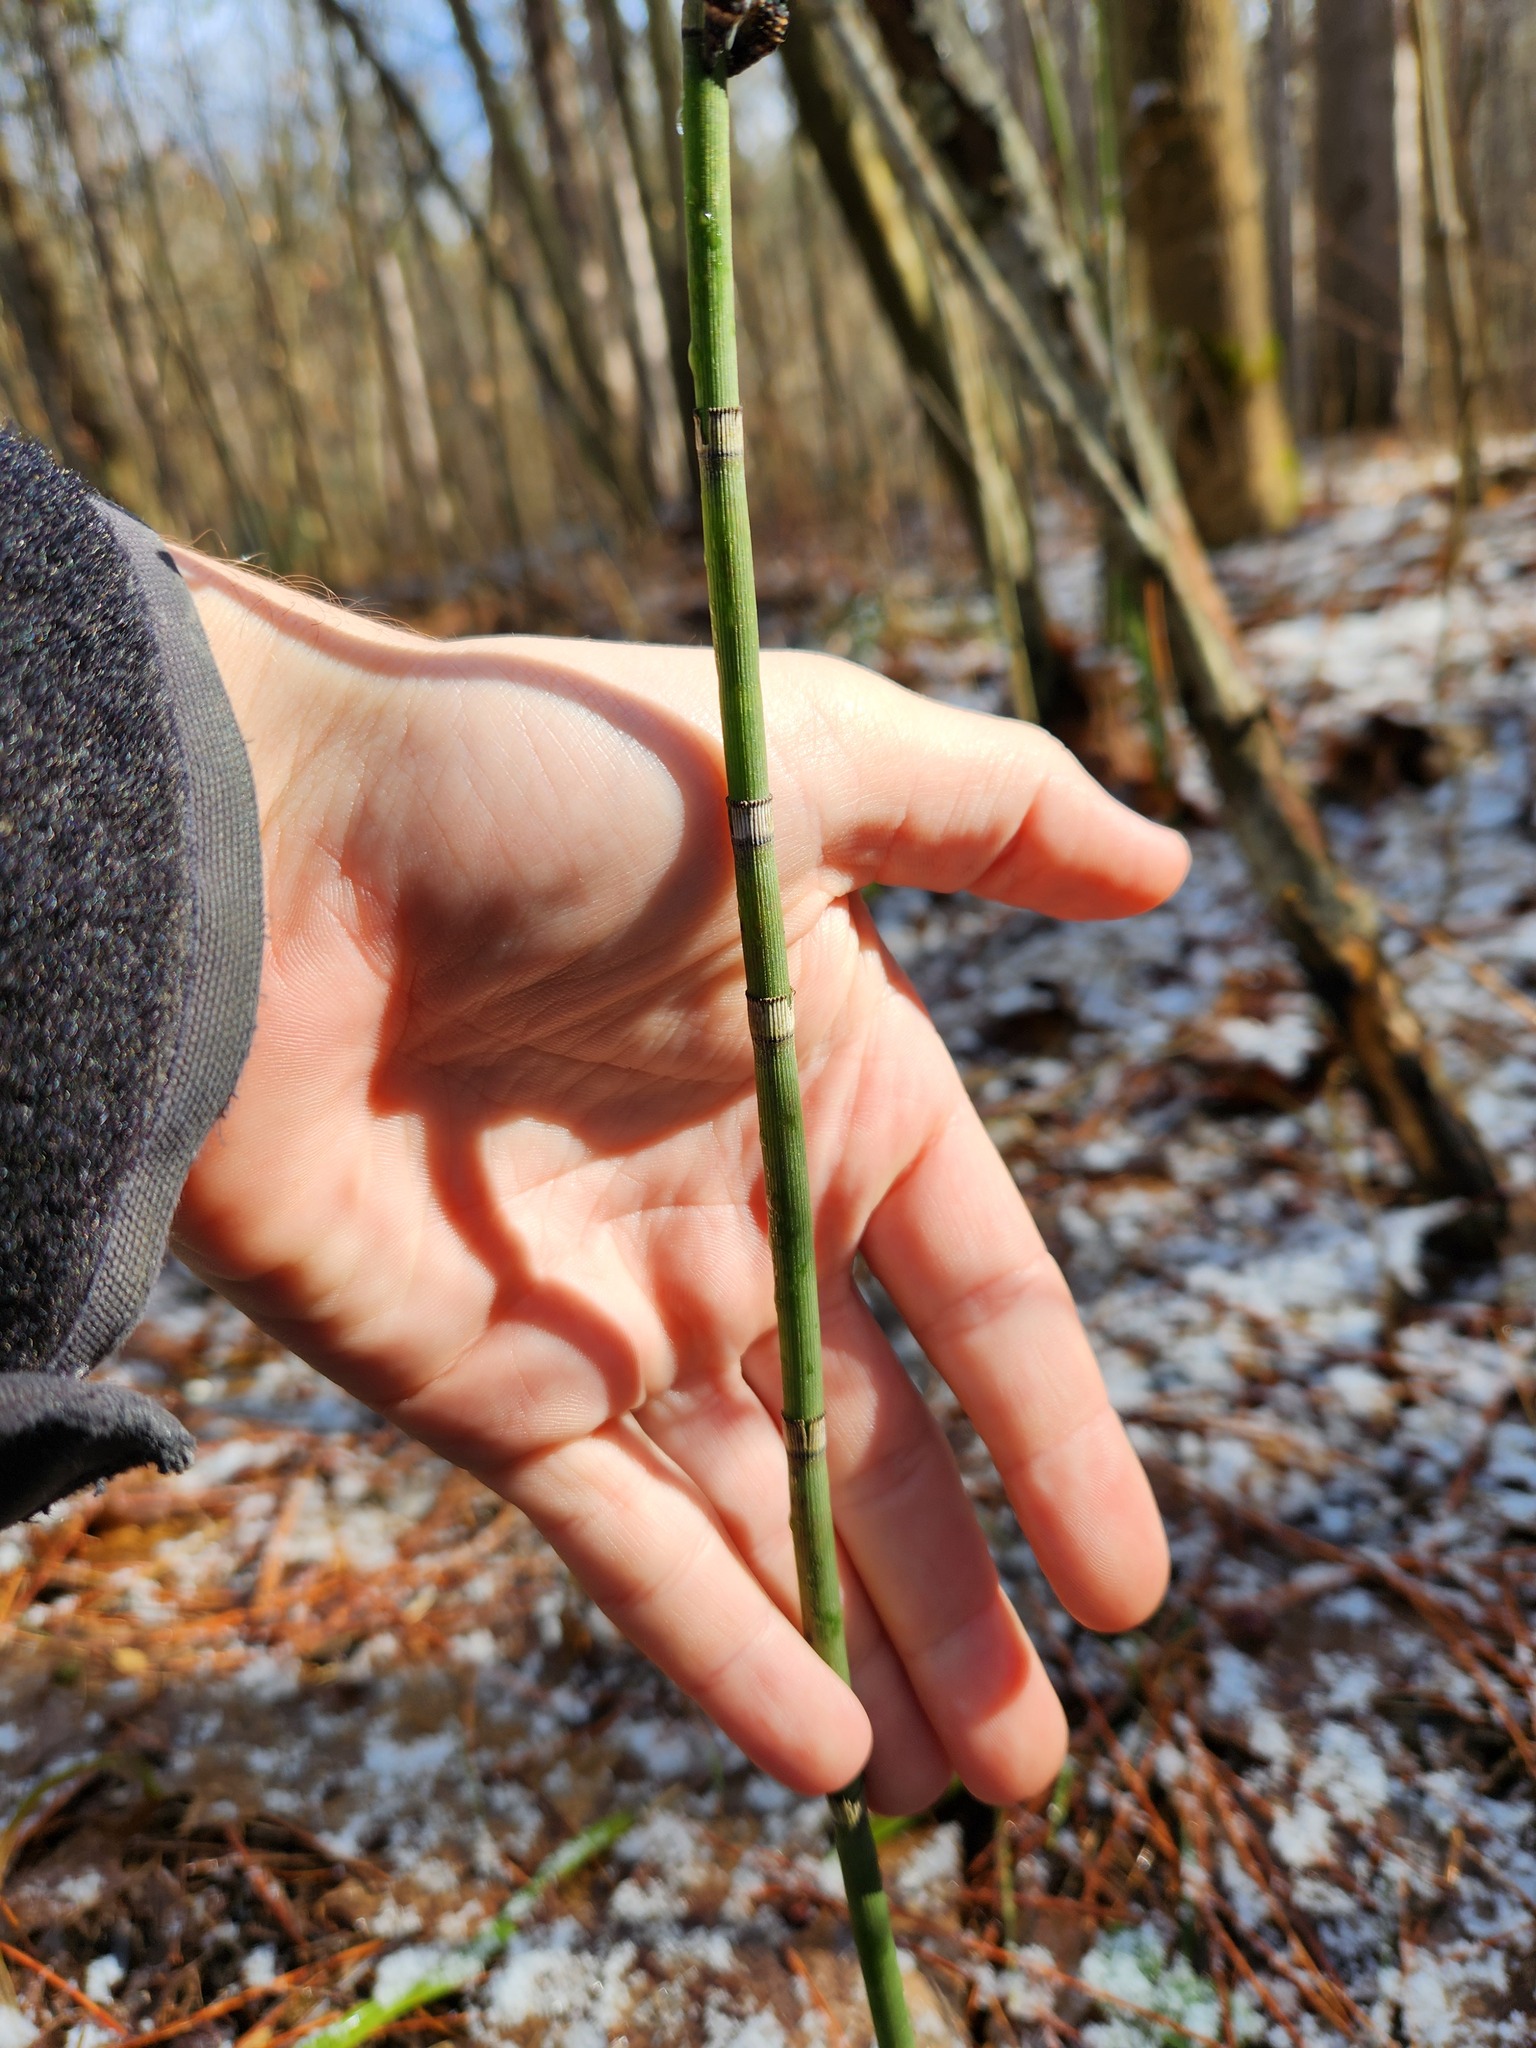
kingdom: Plantae
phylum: Tracheophyta
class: Polypodiopsida
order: Equisetales
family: Equisetaceae
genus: Equisetum
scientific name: Equisetum hyemale
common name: Rough horsetail
